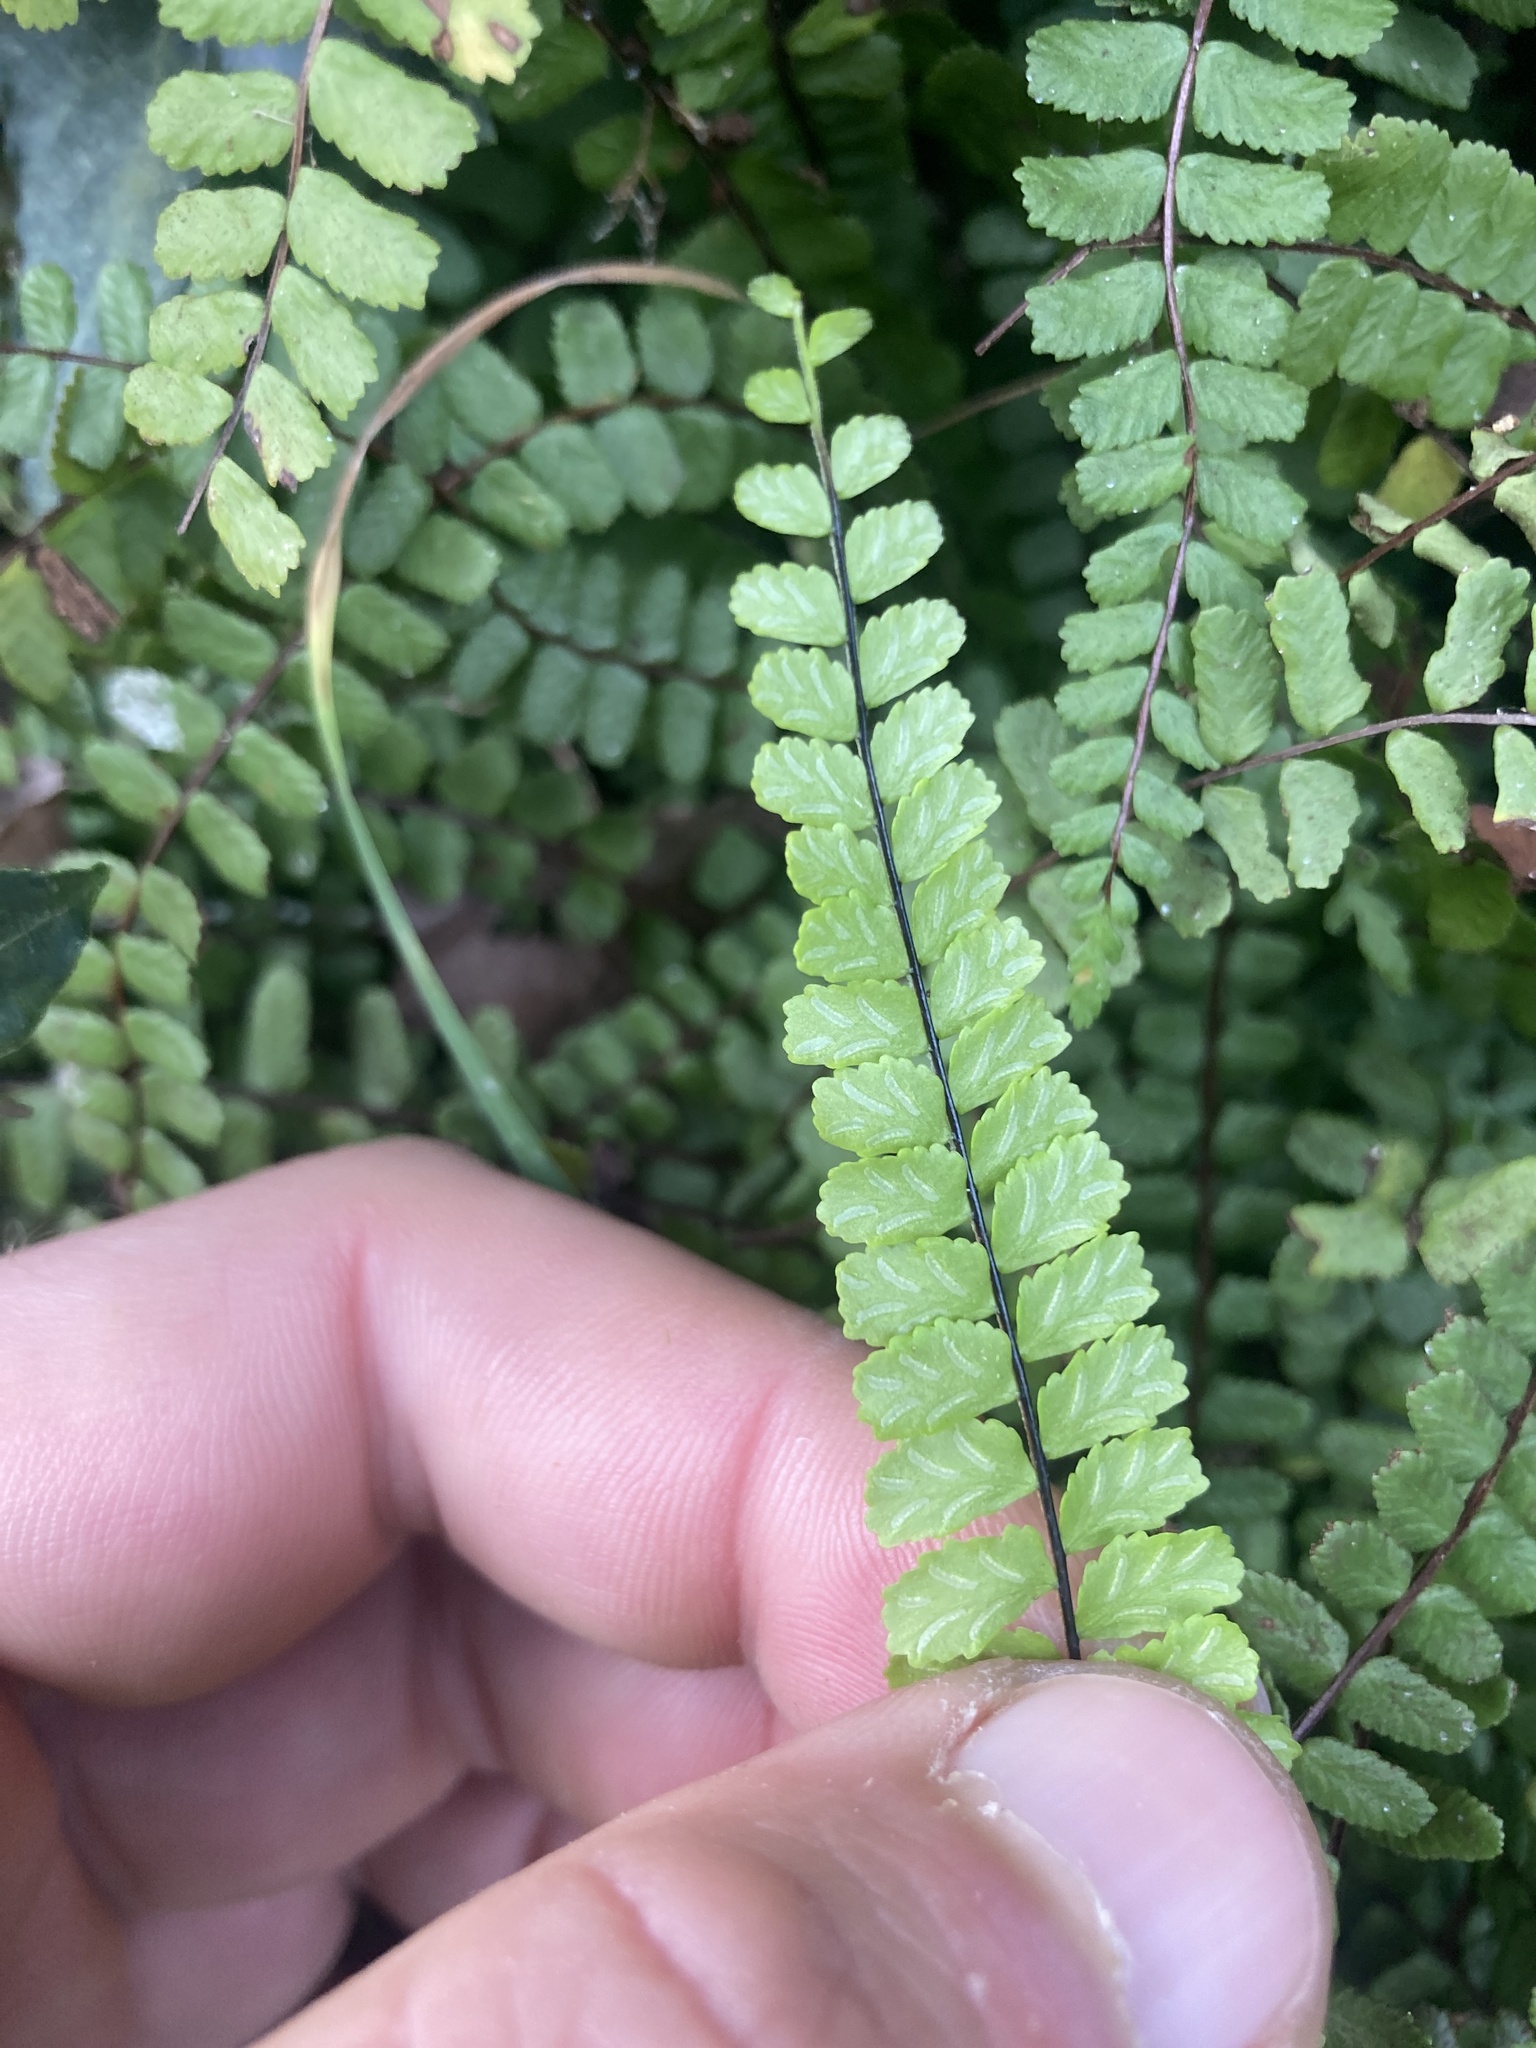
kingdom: Plantae
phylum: Tracheophyta
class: Polypodiopsida
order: Polypodiales
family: Aspleniaceae
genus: Asplenium
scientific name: Asplenium trichomanes
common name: Maidenhair spleenwort
